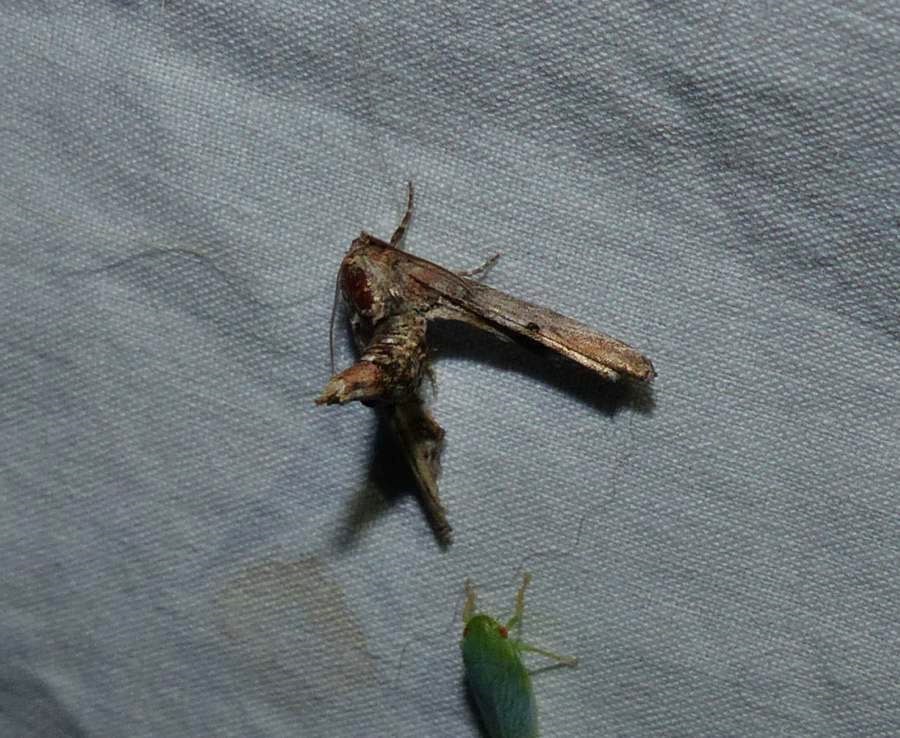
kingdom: Animalia
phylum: Arthropoda
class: Insecta
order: Lepidoptera
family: Euteliidae
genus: Marathyssa
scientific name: Marathyssa inficita
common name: Dark marathyssa moth
